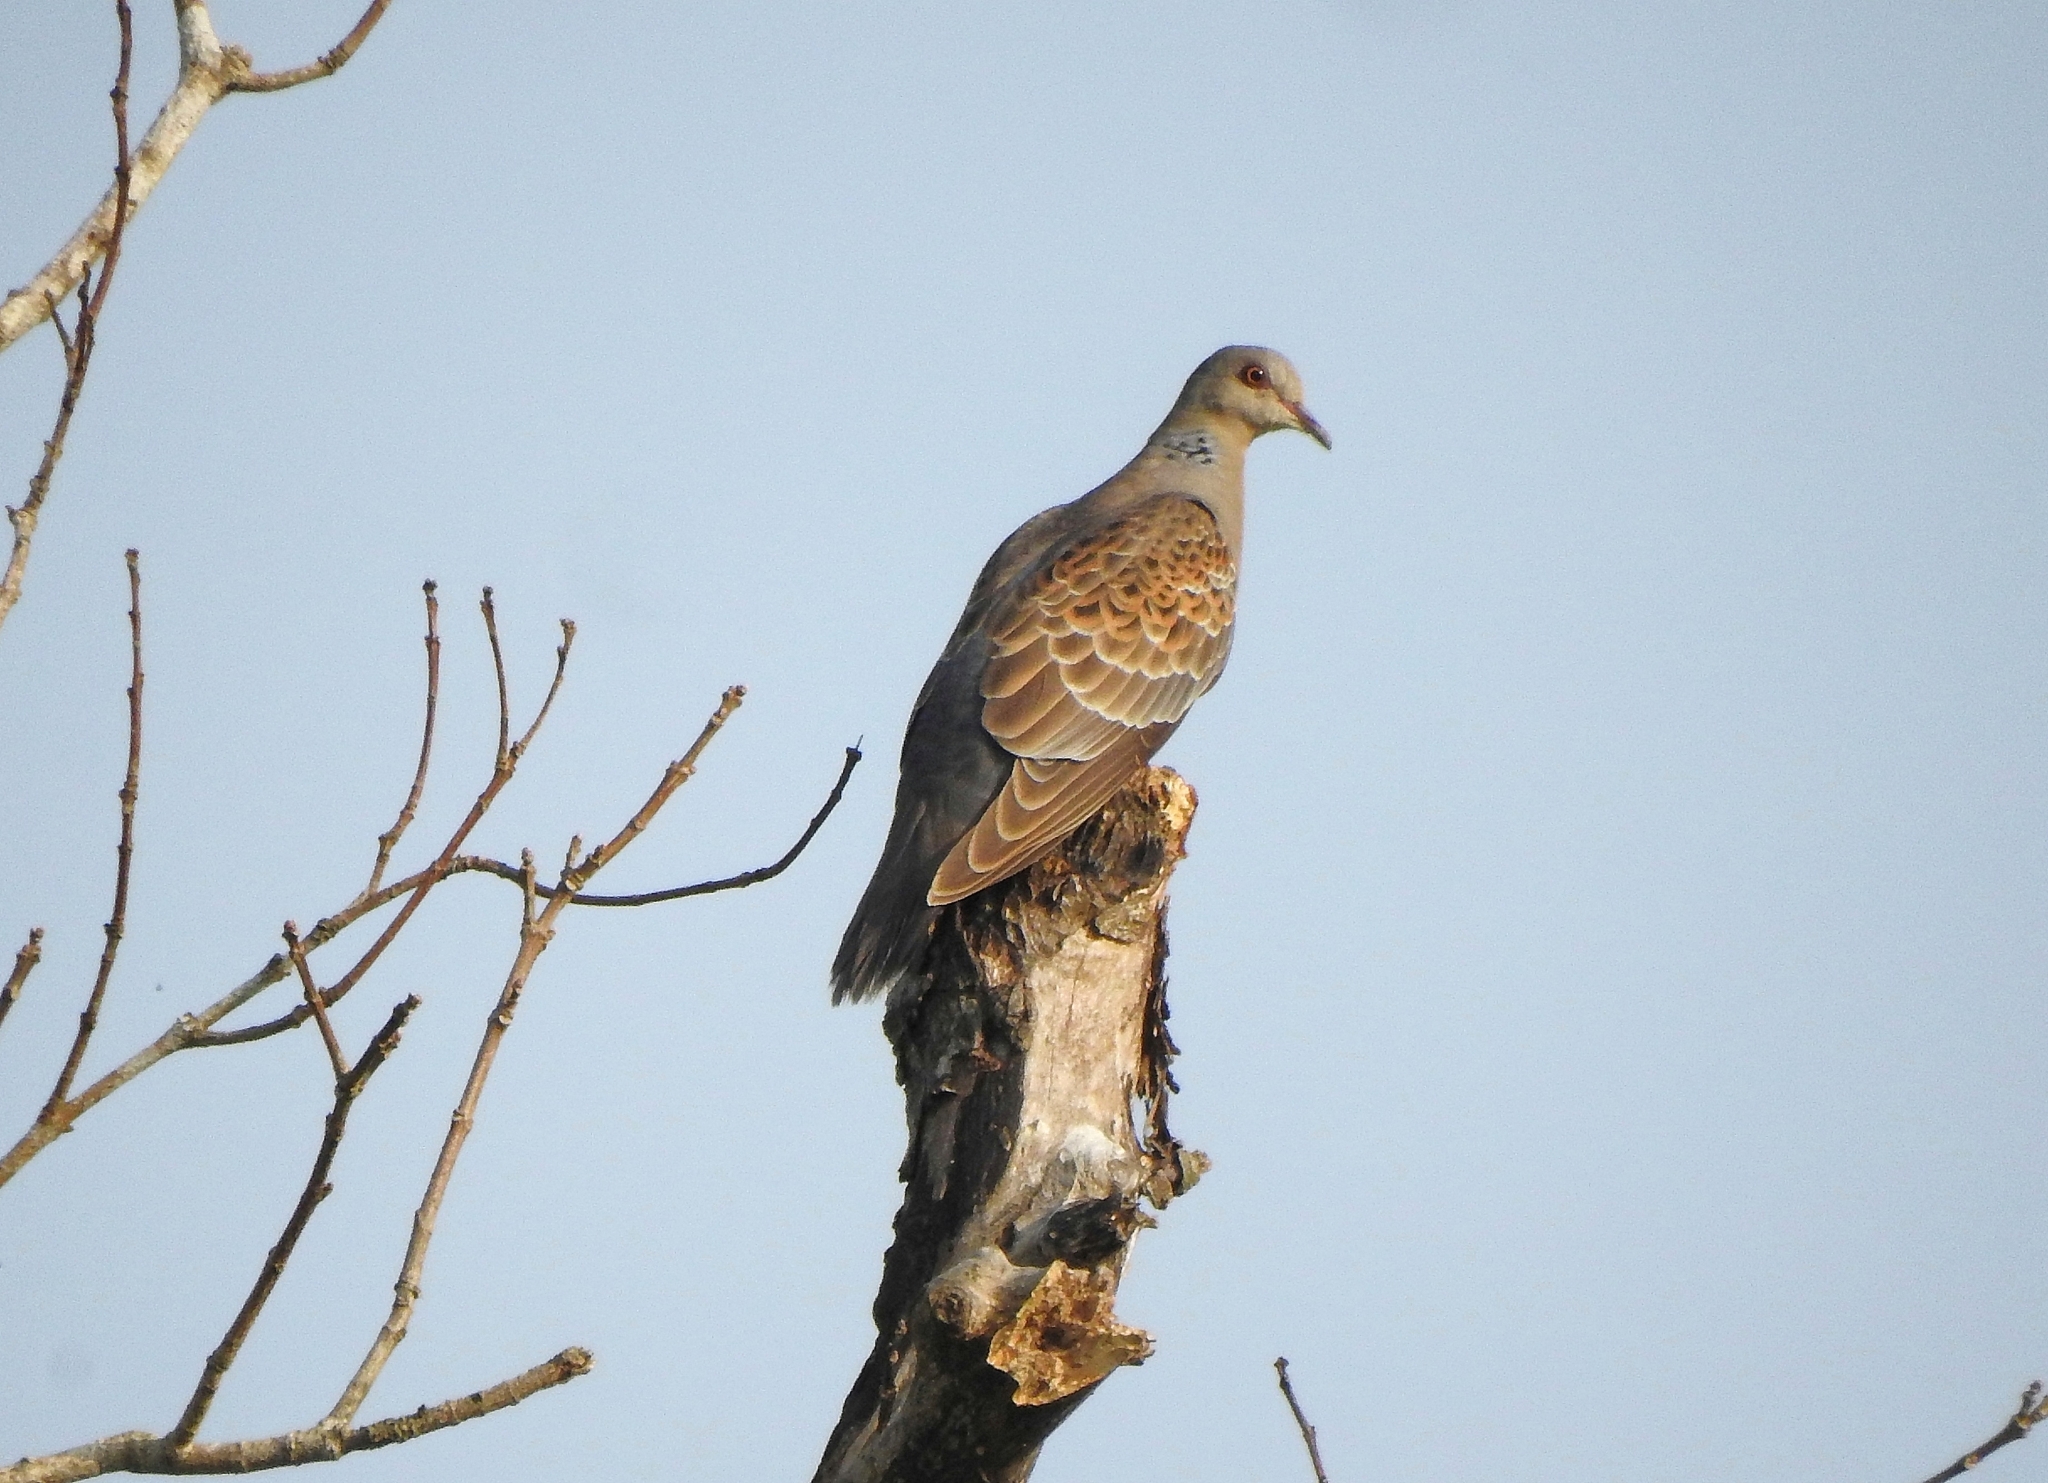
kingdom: Animalia
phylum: Chordata
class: Aves
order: Columbiformes
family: Columbidae
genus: Streptopelia
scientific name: Streptopelia orientalis
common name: Oriental turtle dove
